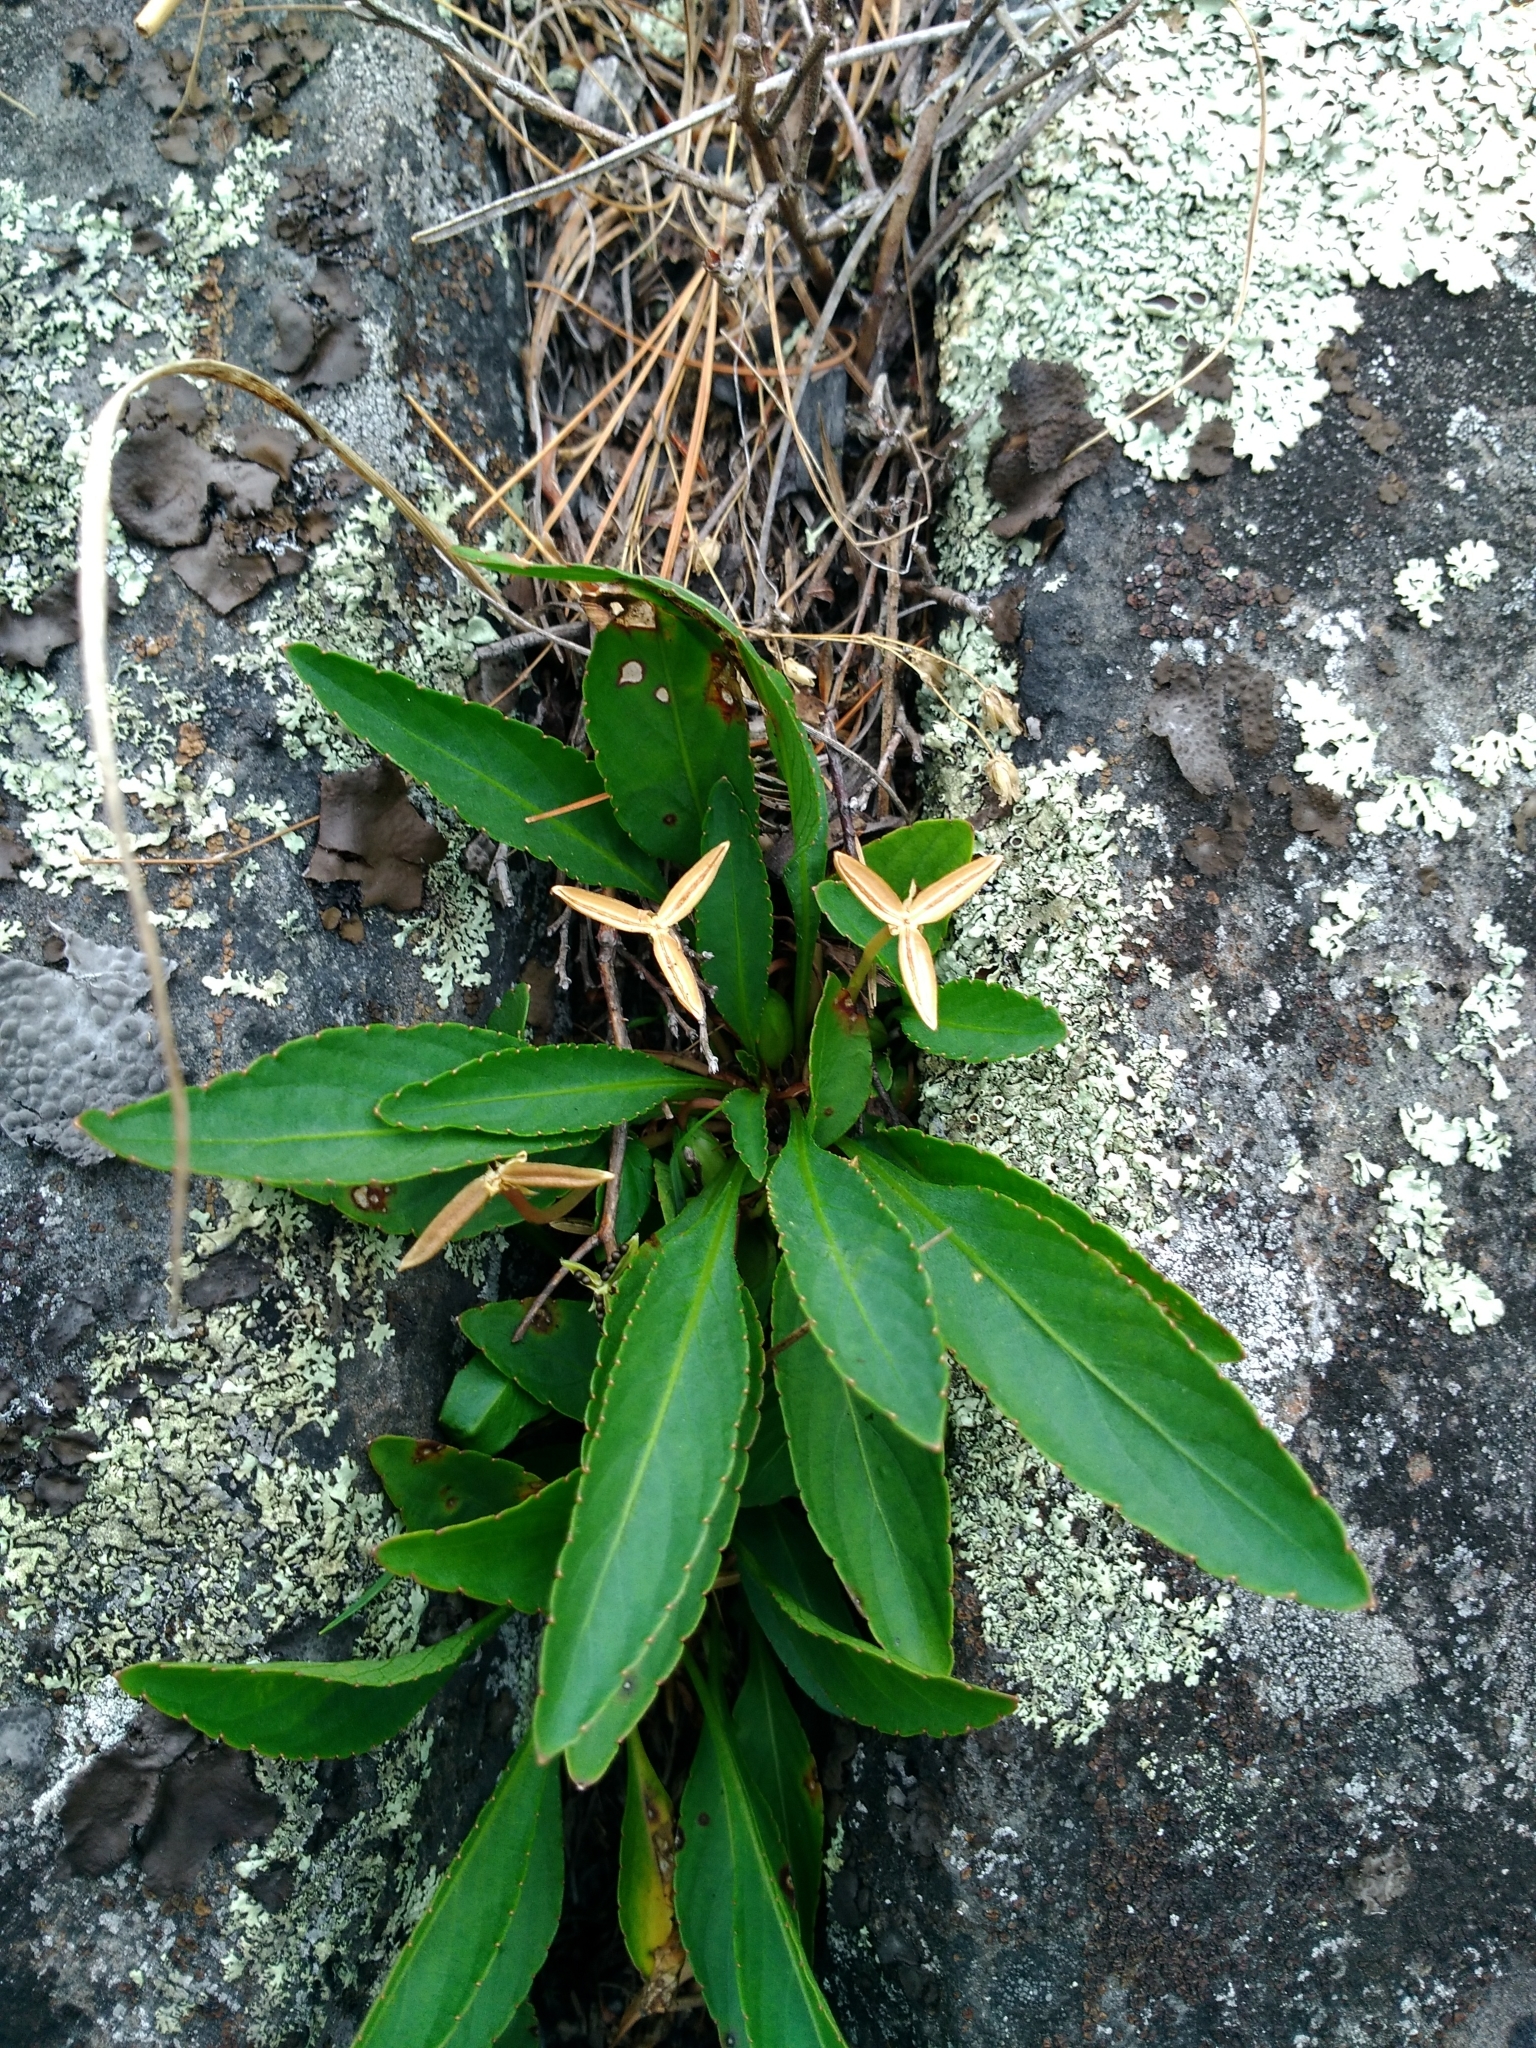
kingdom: Plantae
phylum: Tracheophyta
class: Magnoliopsida
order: Malpighiales
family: Violaceae
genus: Viola
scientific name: Viola lanceolata
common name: Bog white violet
